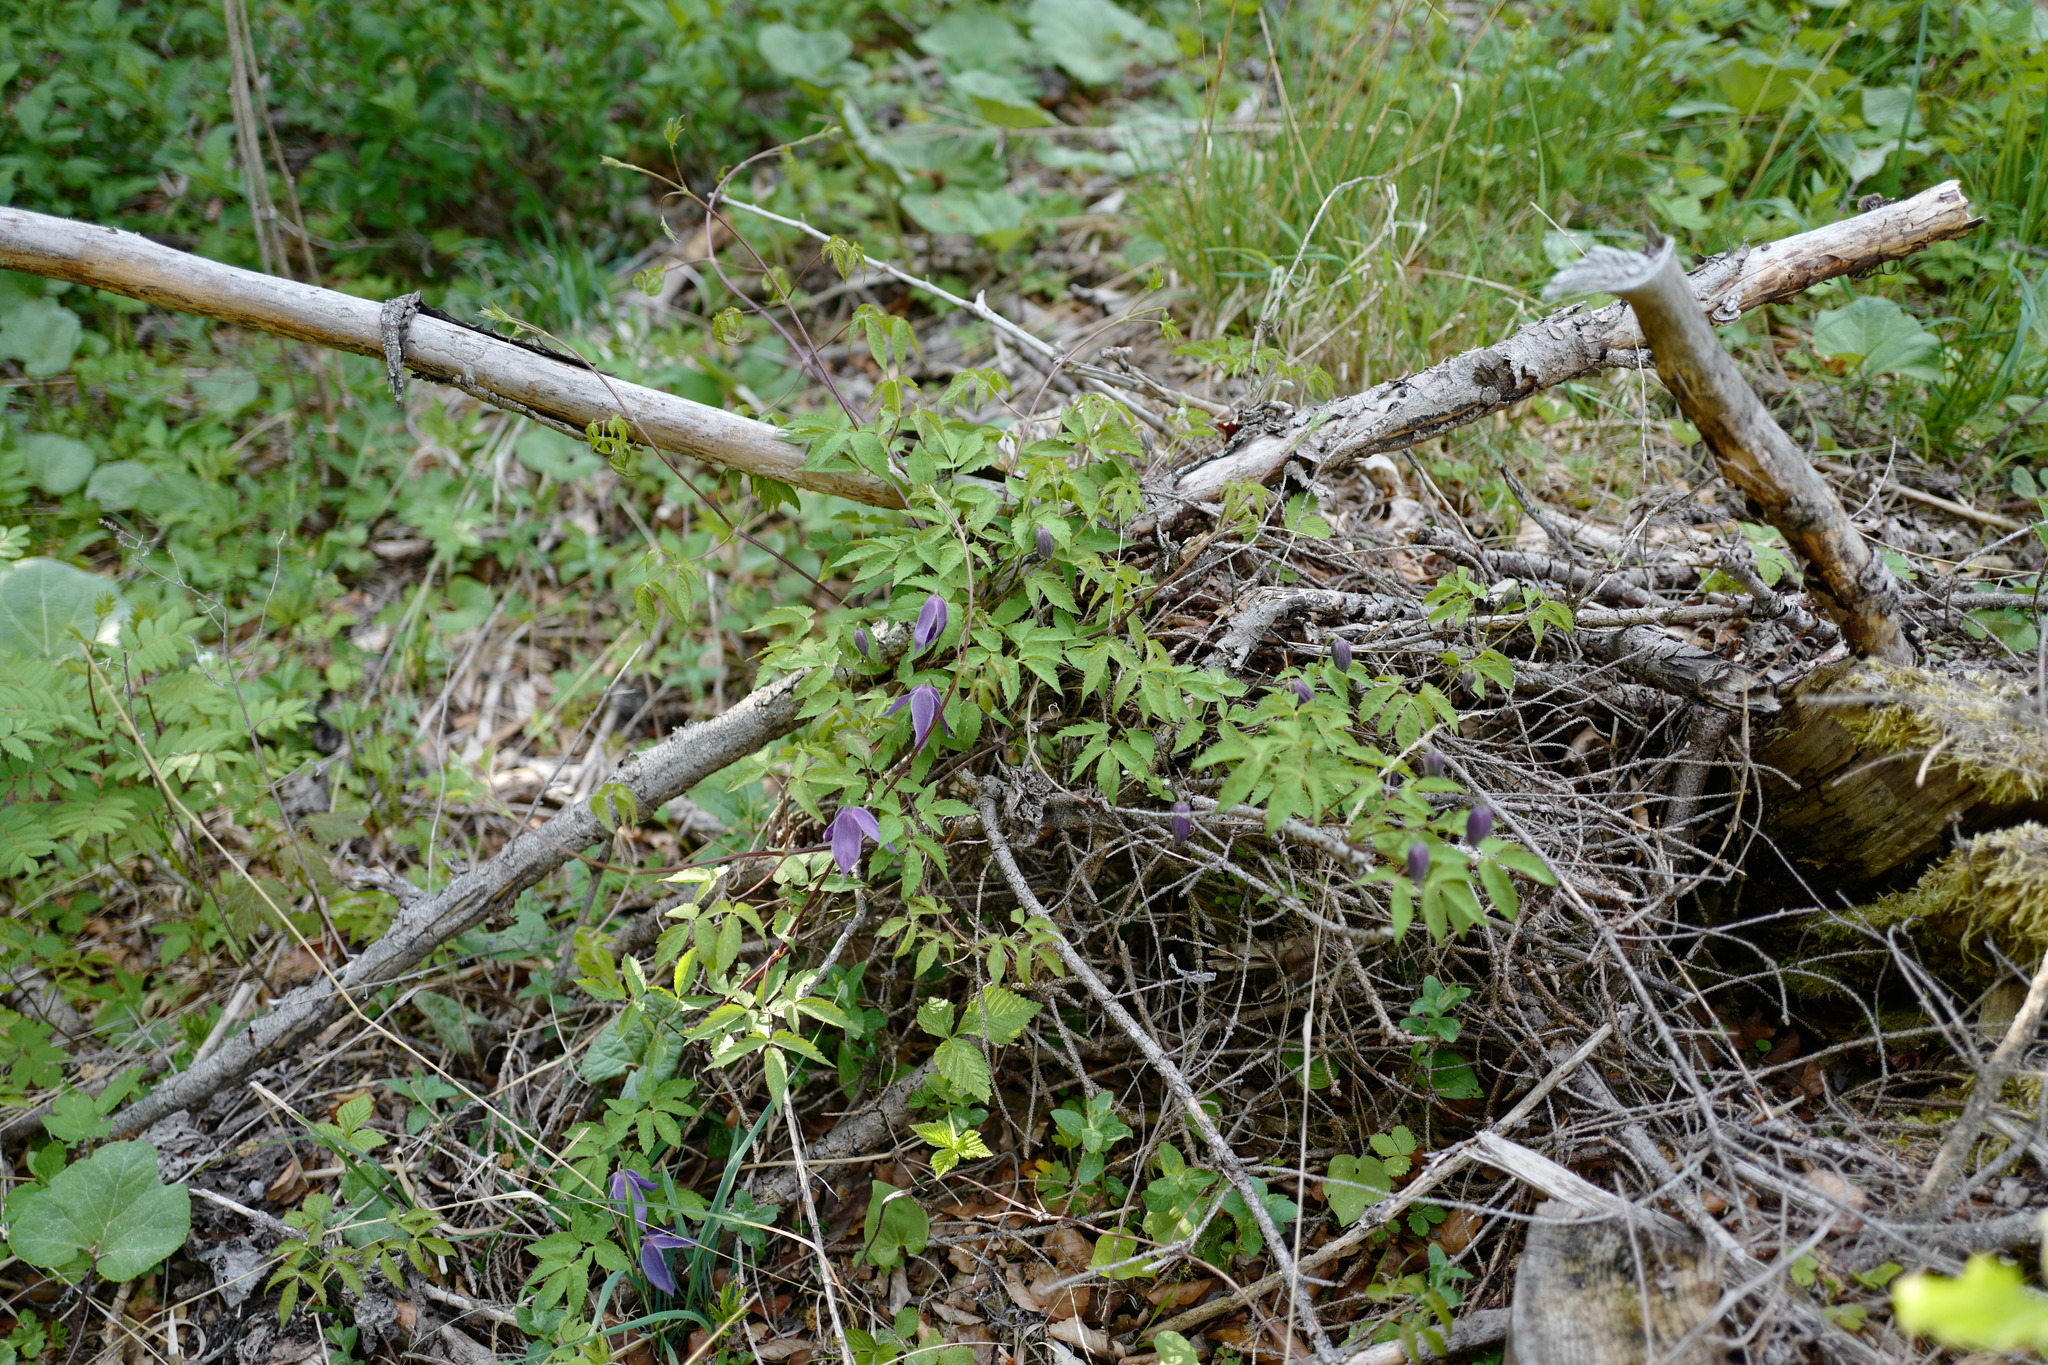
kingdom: Plantae
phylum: Tracheophyta
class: Magnoliopsida
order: Ranunculales
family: Ranunculaceae
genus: Clematis
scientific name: Clematis alpina
